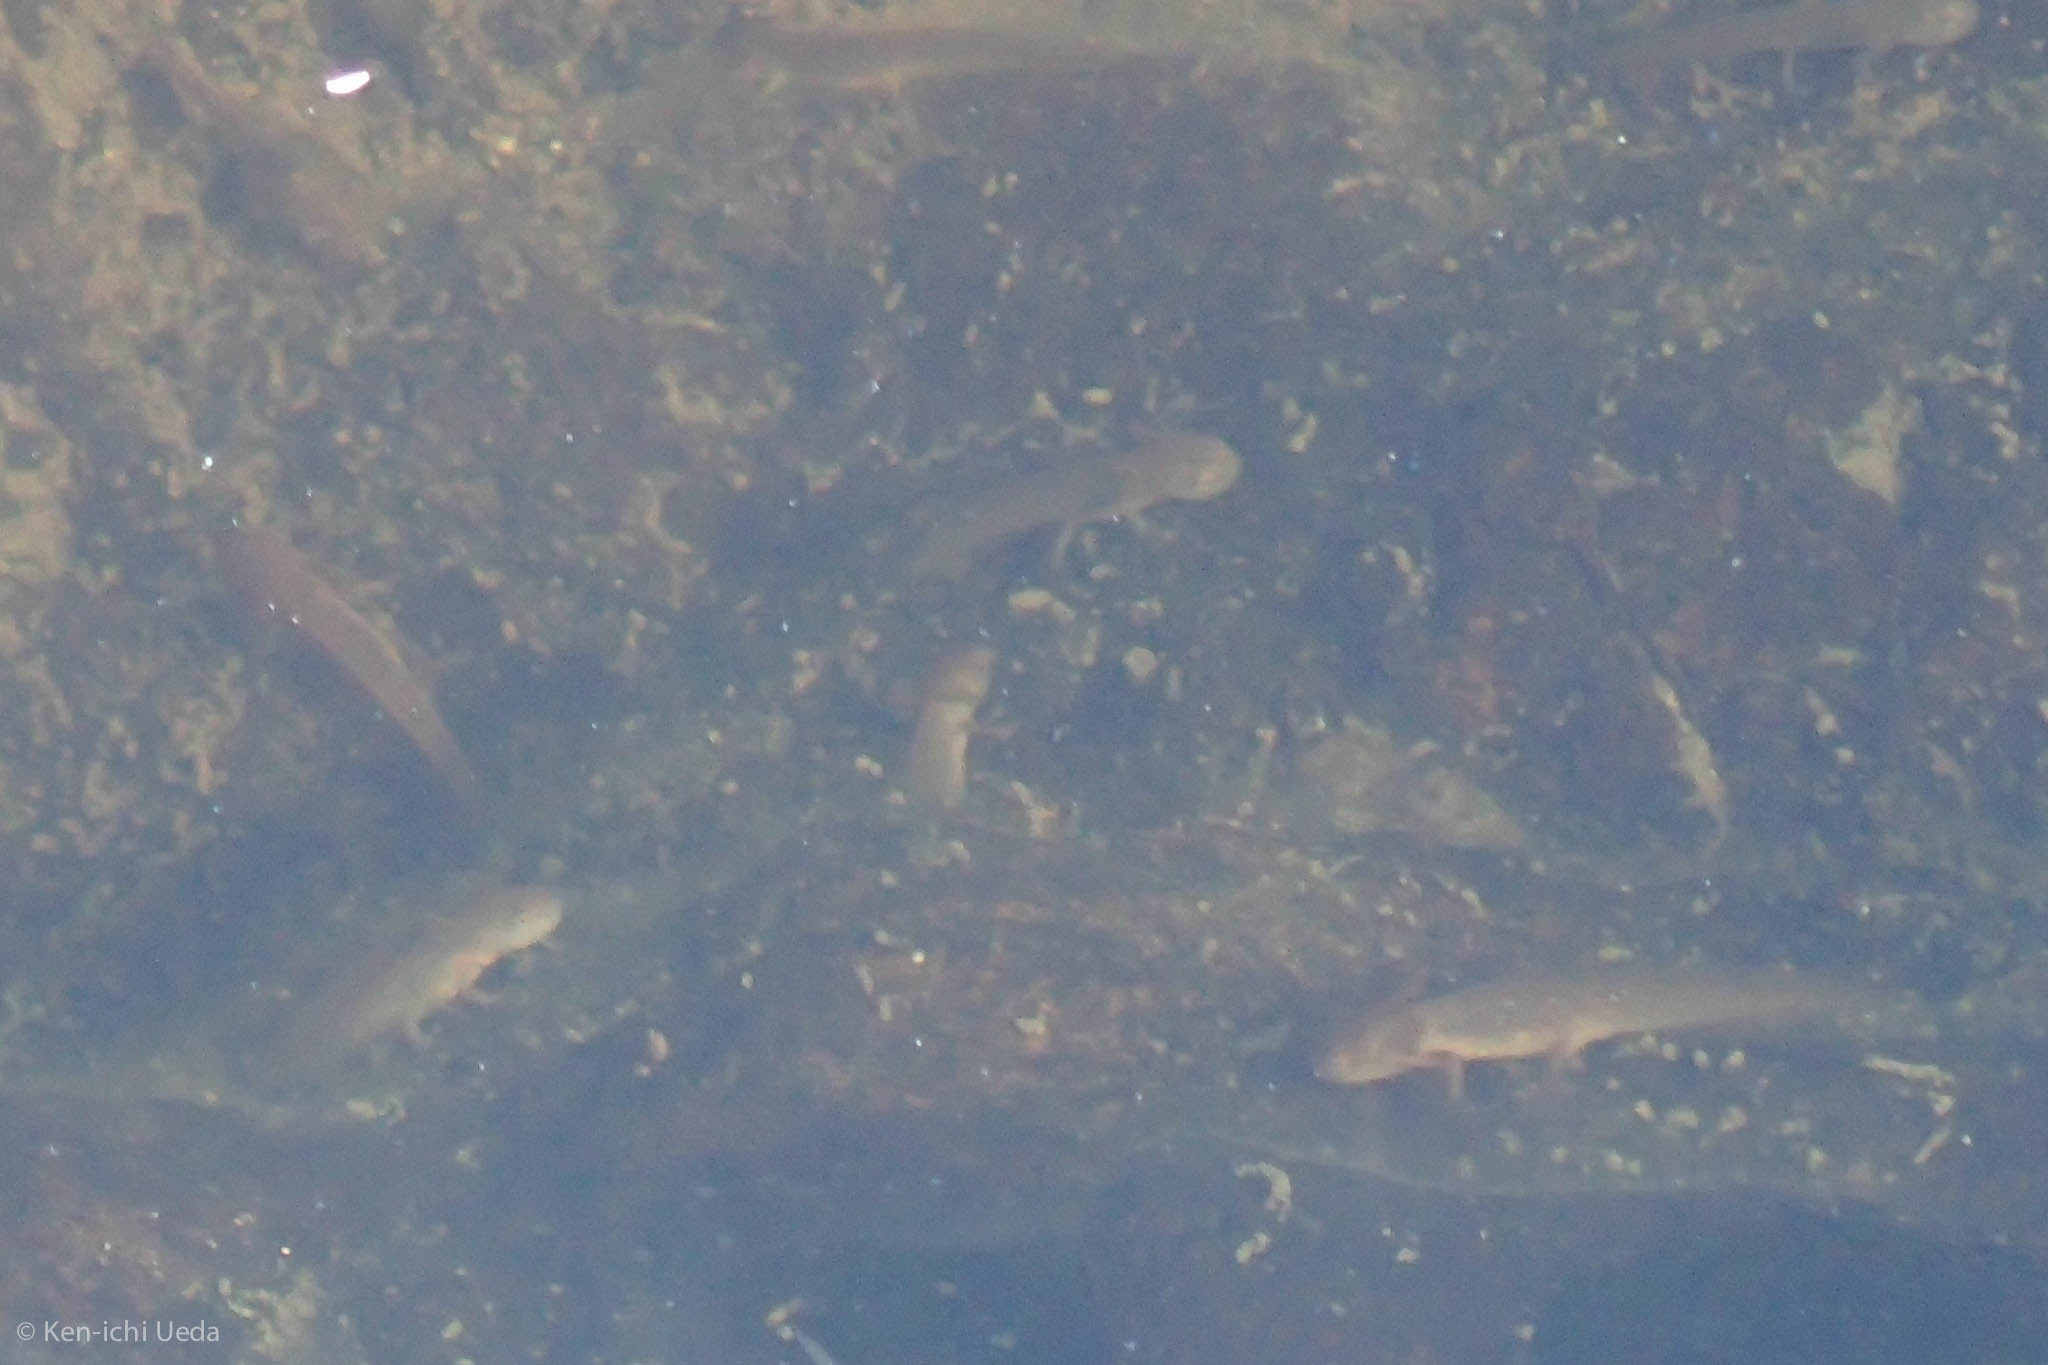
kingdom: Animalia
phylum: Chordata
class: Amphibia
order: Caudata
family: Salamandridae
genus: Taricha
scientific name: Taricha granulosa
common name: Roughskin newt
